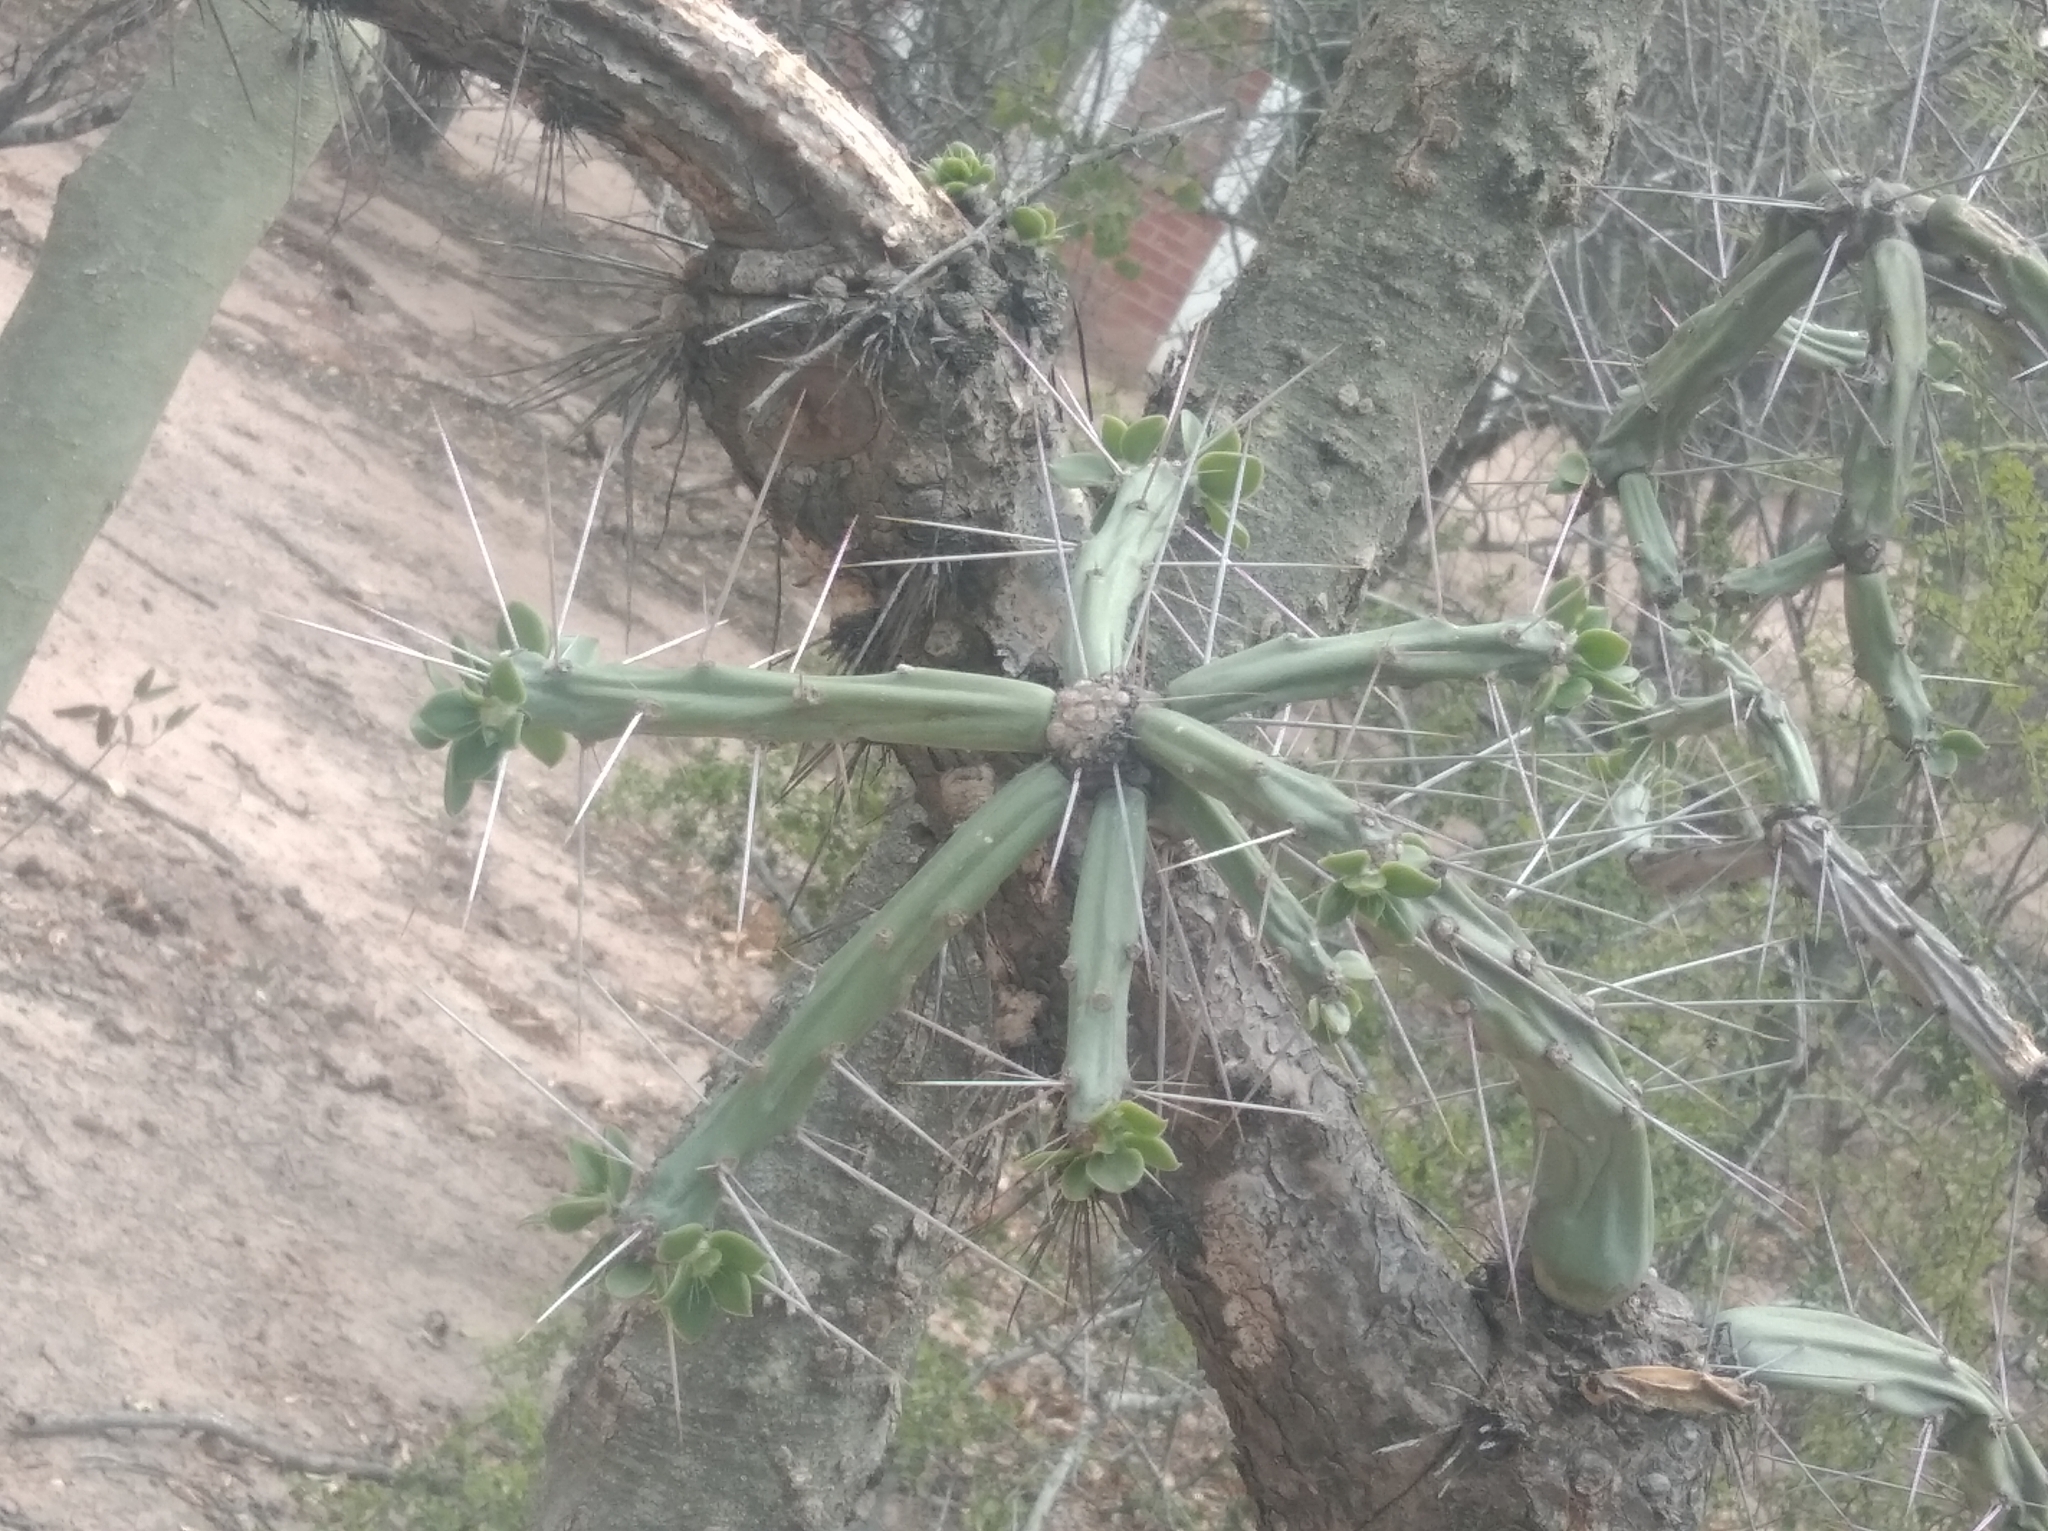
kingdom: Plantae
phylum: Tracheophyta
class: Magnoliopsida
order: Caryophyllales
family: Cactaceae
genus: Quiabentia
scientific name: Quiabentia verticillata
